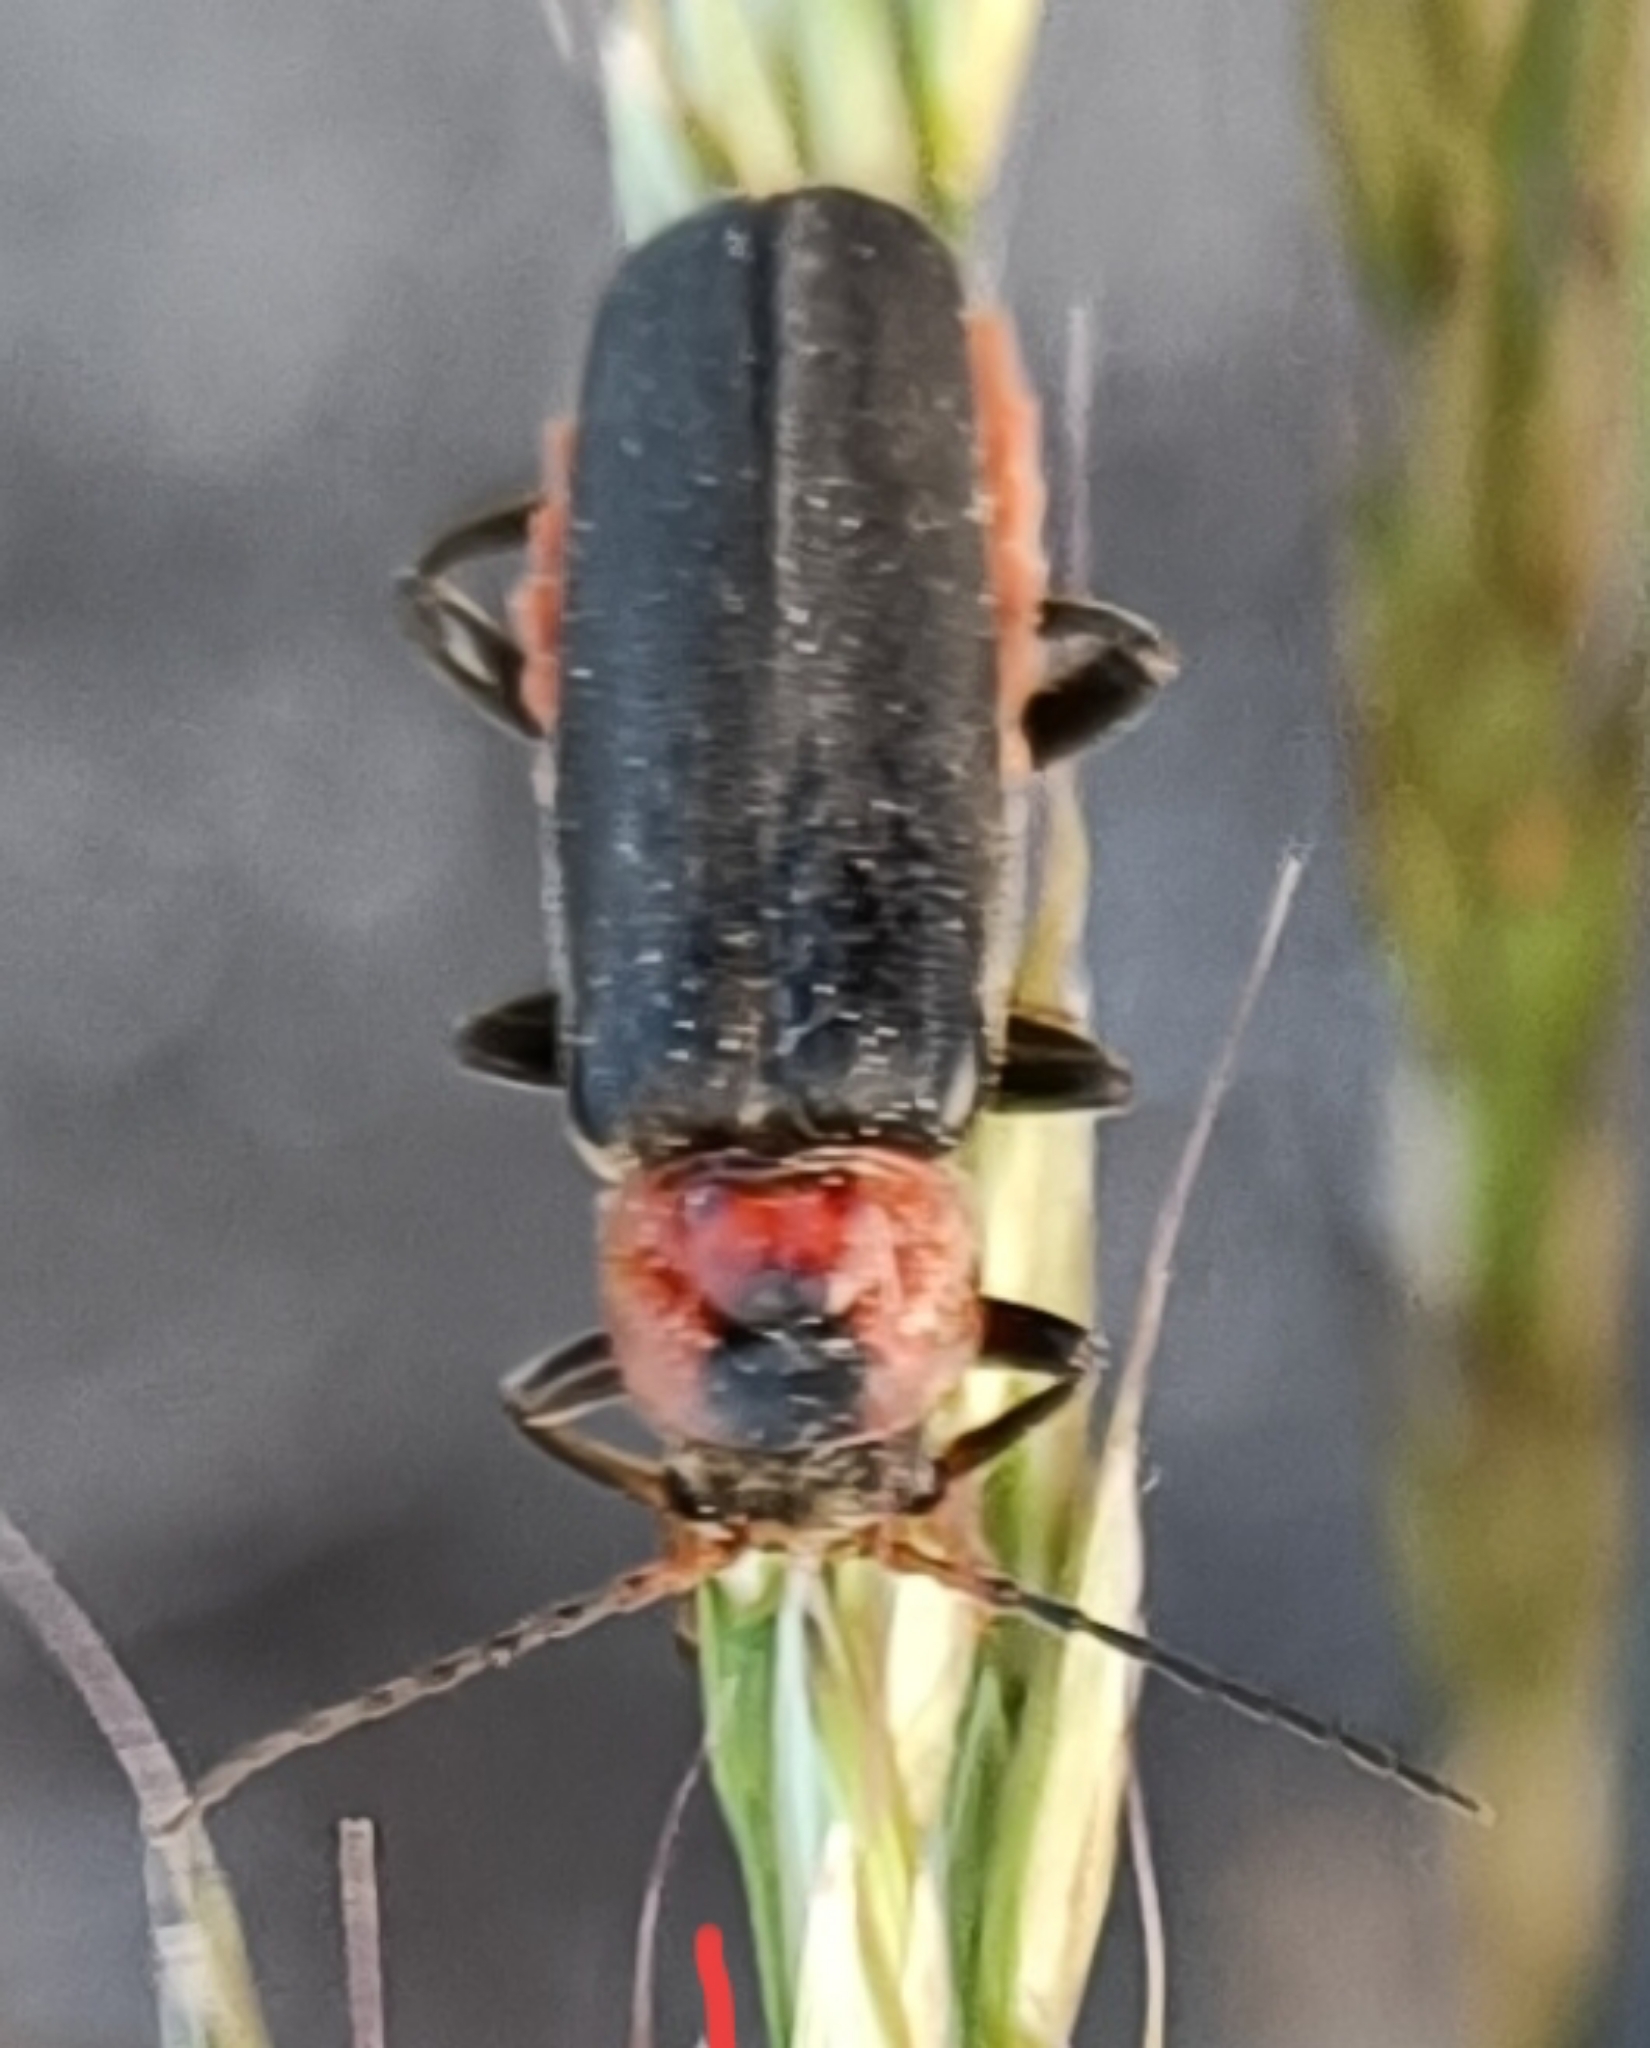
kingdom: Animalia
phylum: Arthropoda
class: Insecta
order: Coleoptera
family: Cantharidae
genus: Cantharis
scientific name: Cantharis fusca
